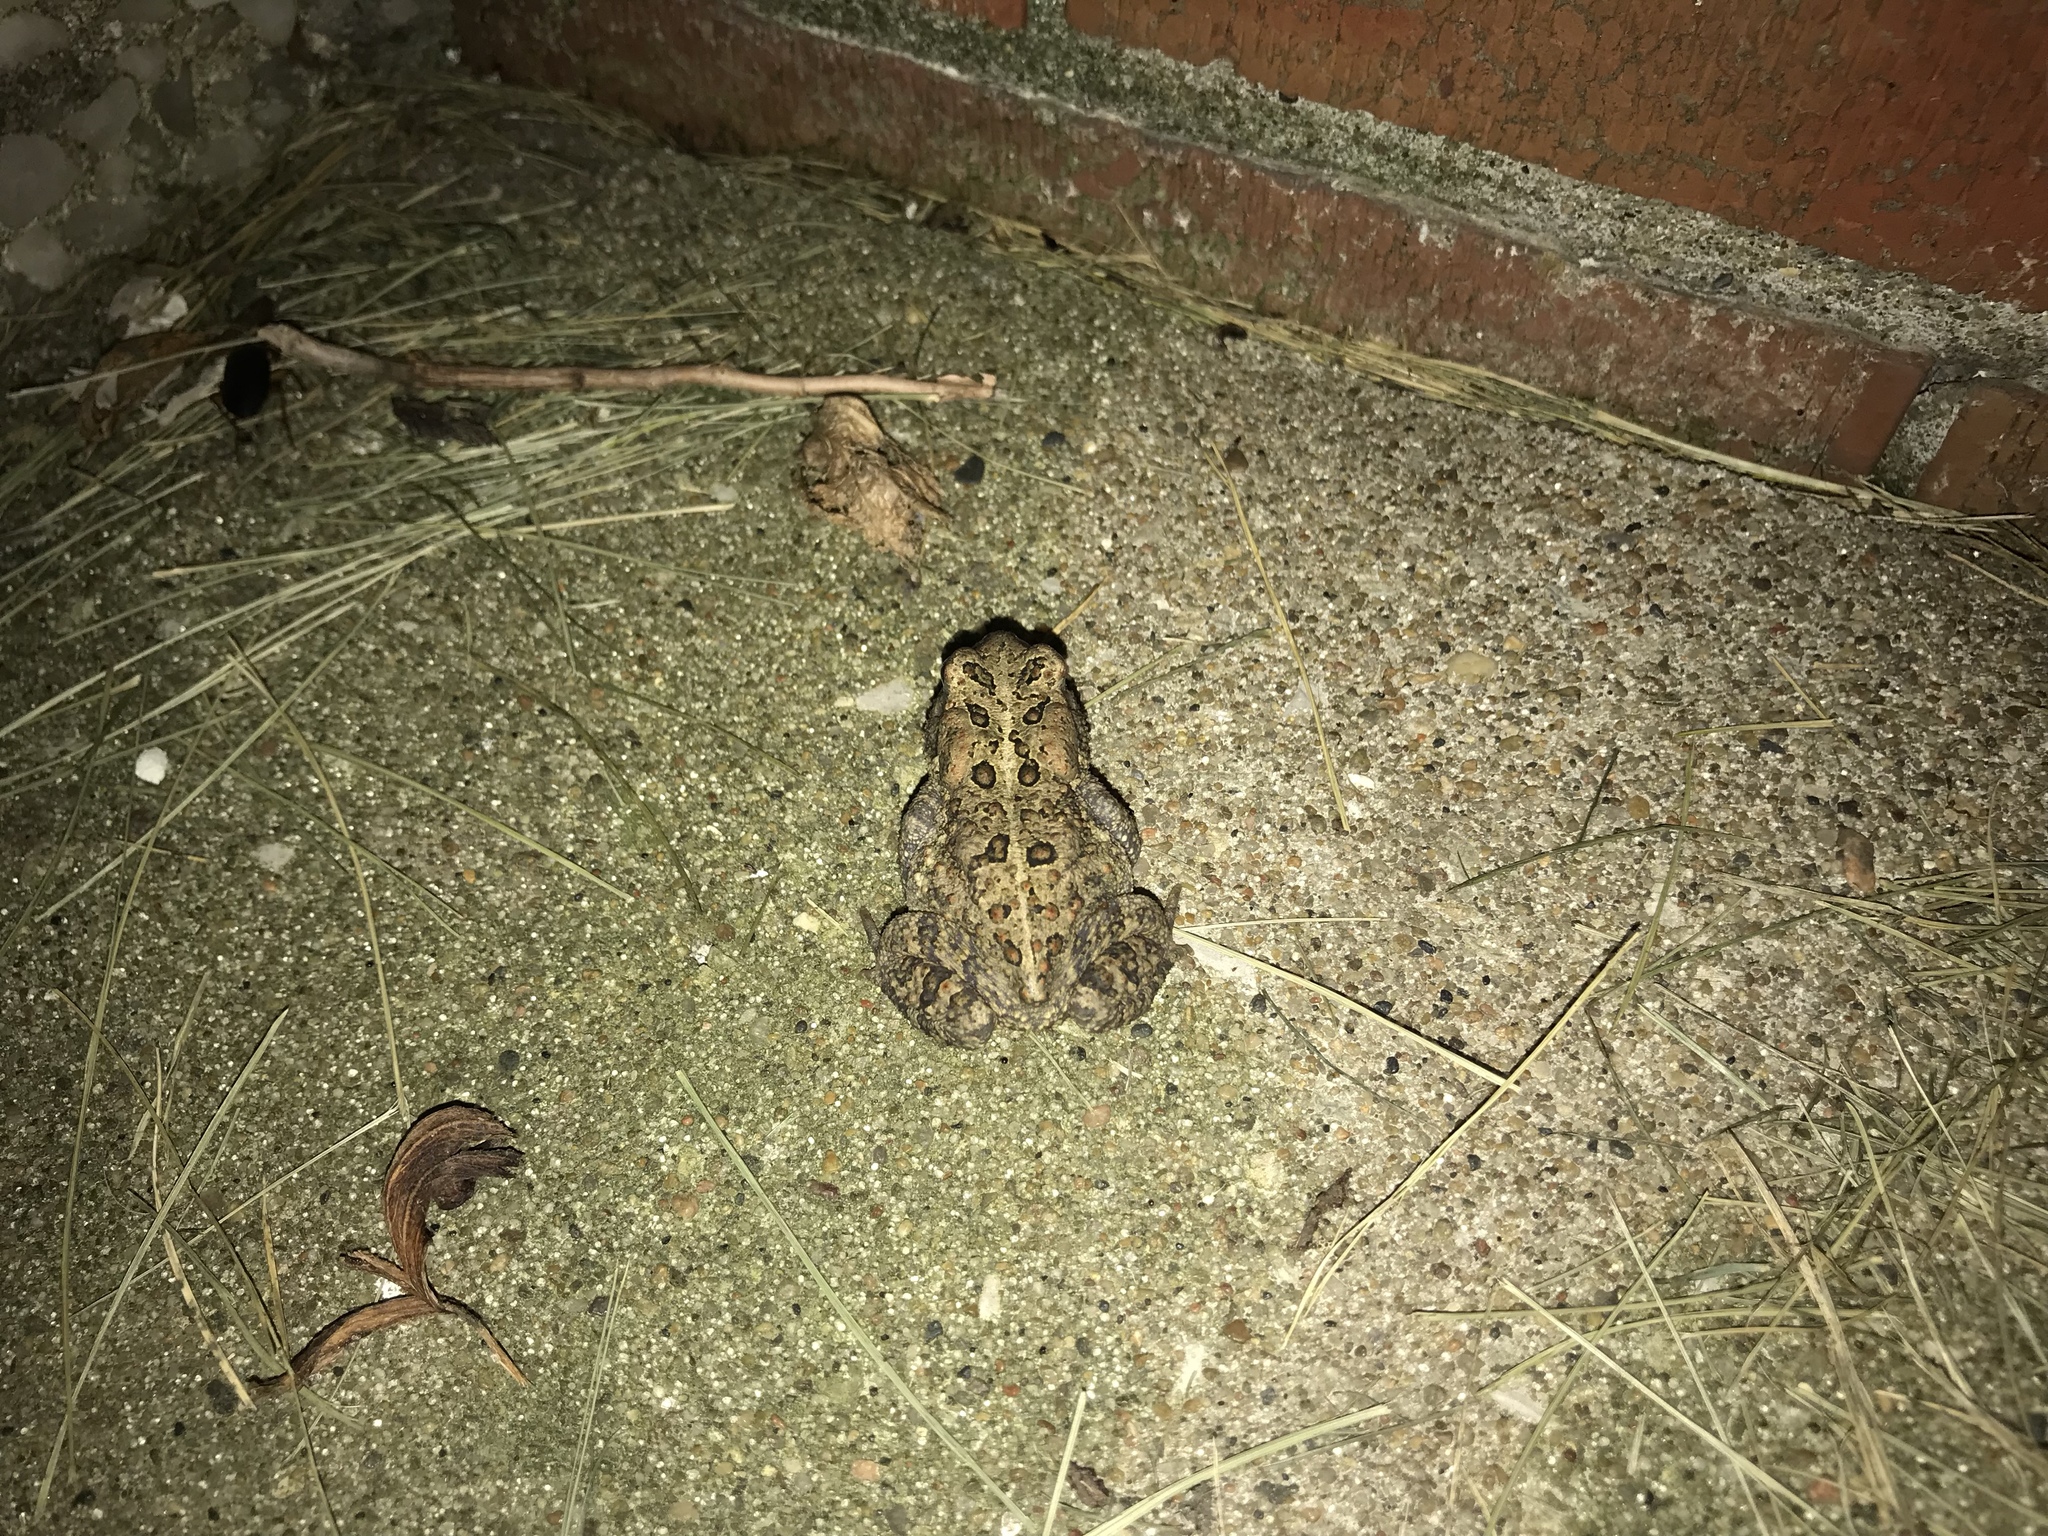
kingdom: Animalia
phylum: Chordata
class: Amphibia
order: Anura
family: Bufonidae
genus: Anaxyrus
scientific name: Anaxyrus americanus
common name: American toad
